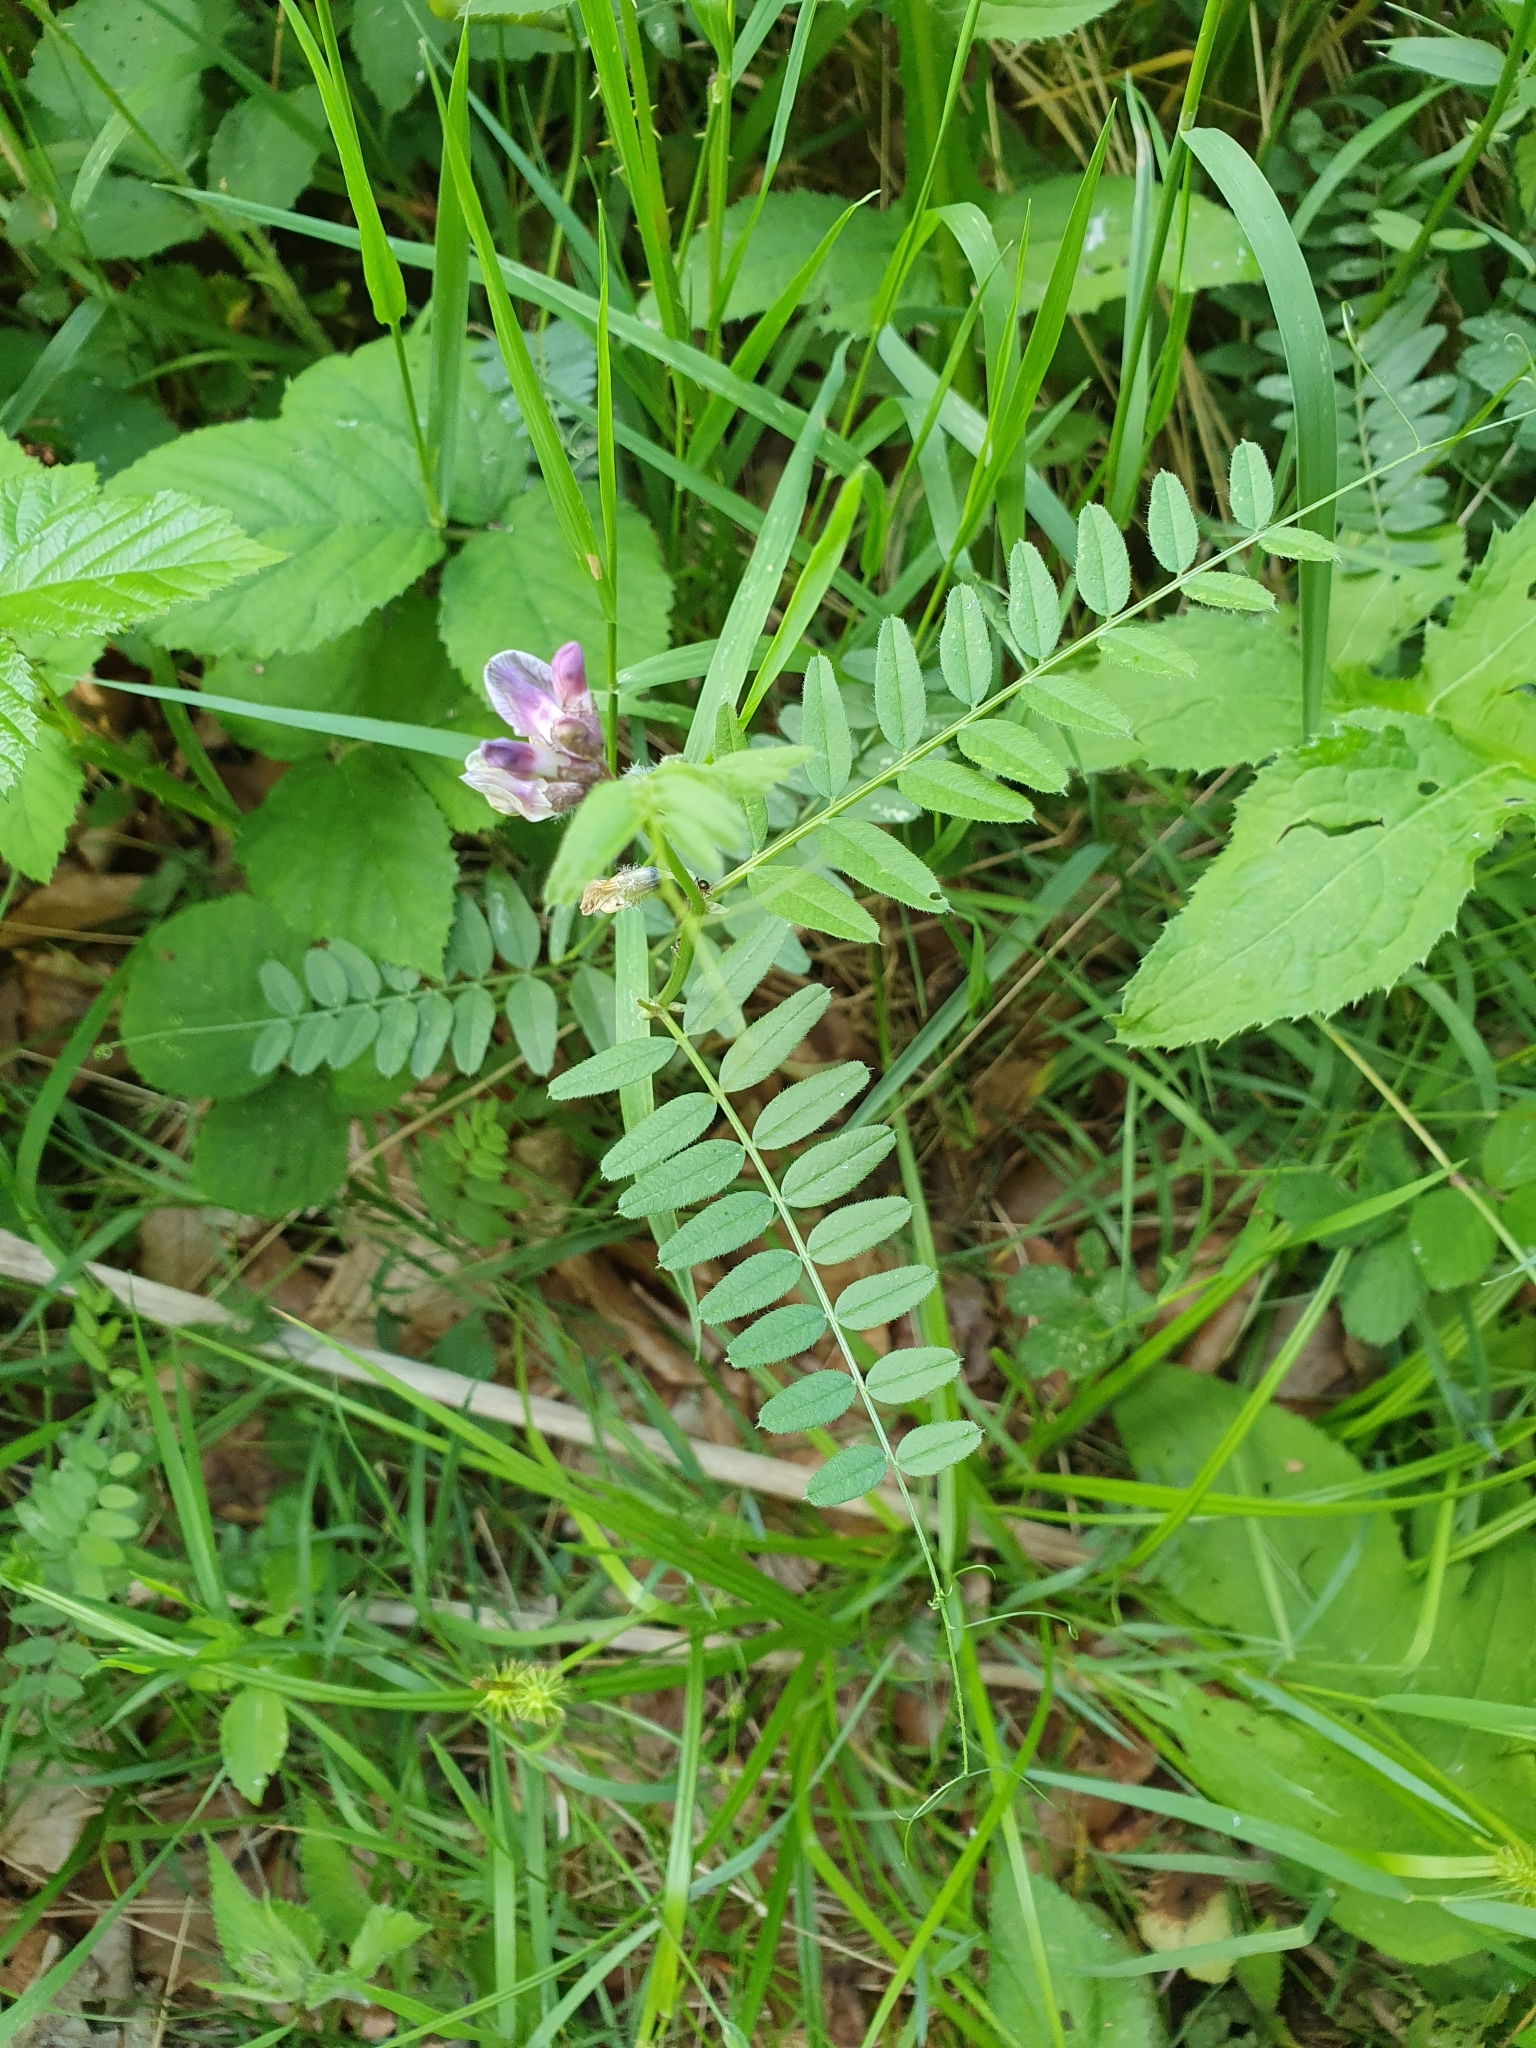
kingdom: Plantae
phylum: Tracheophyta
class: Magnoliopsida
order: Fabales
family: Fabaceae
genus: Vicia
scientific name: Vicia sepium
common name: Bush vetch
